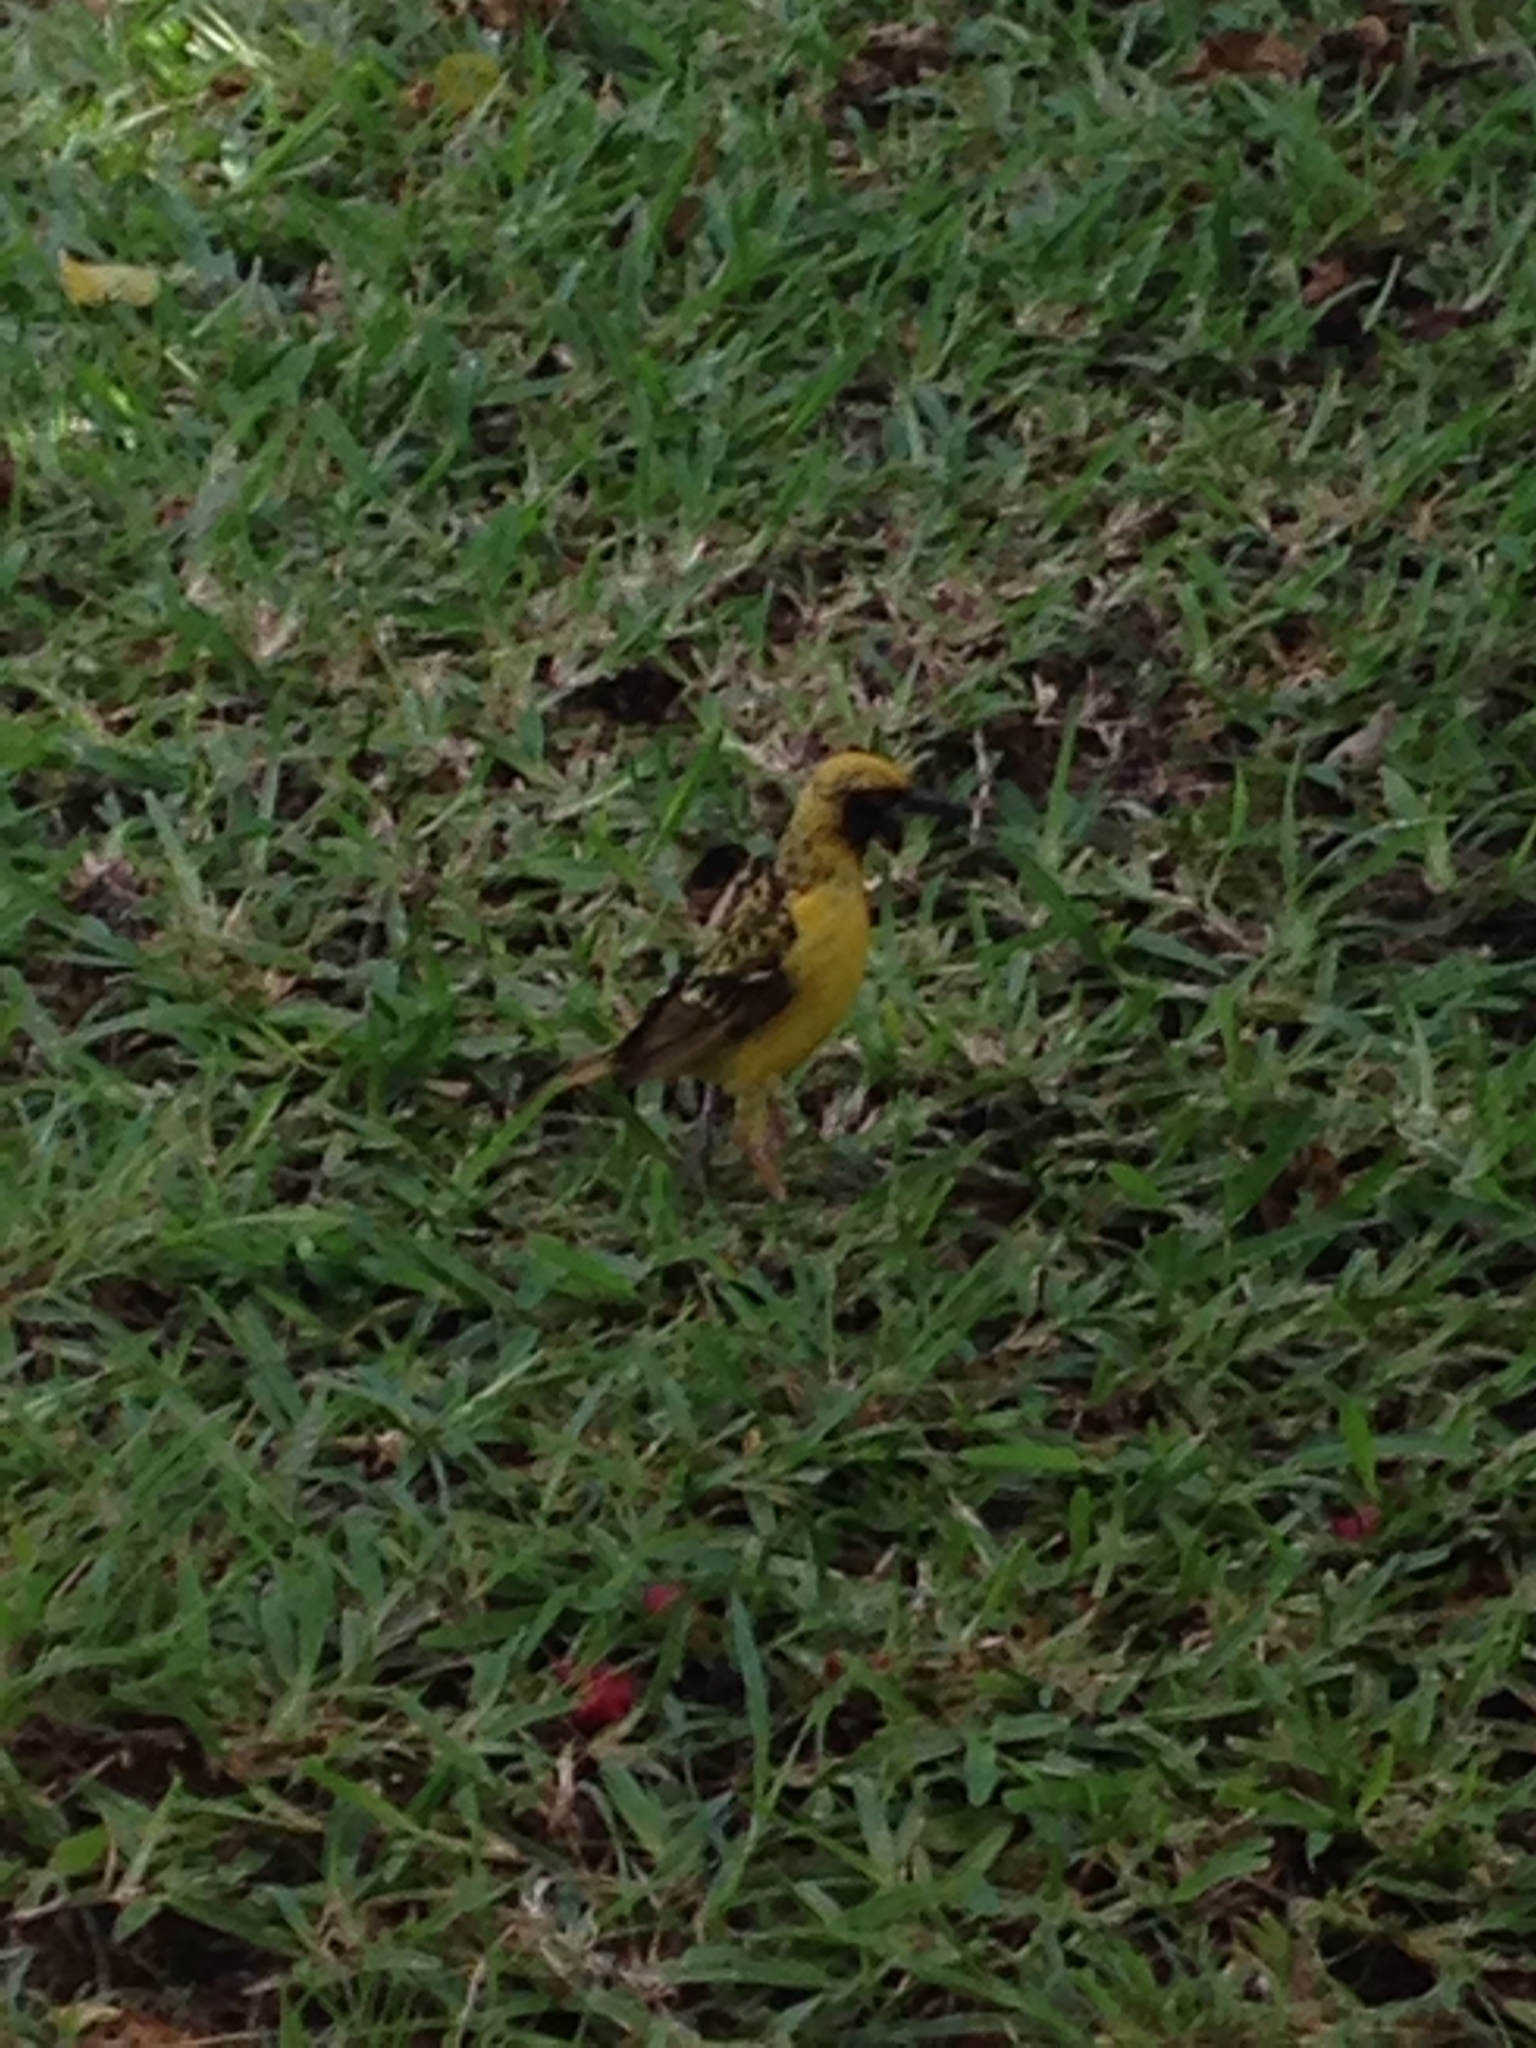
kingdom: Animalia
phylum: Chordata
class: Aves
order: Passeriformes
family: Ploceidae
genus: Ploceus
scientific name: Ploceus cucullatus
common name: Village weaver
